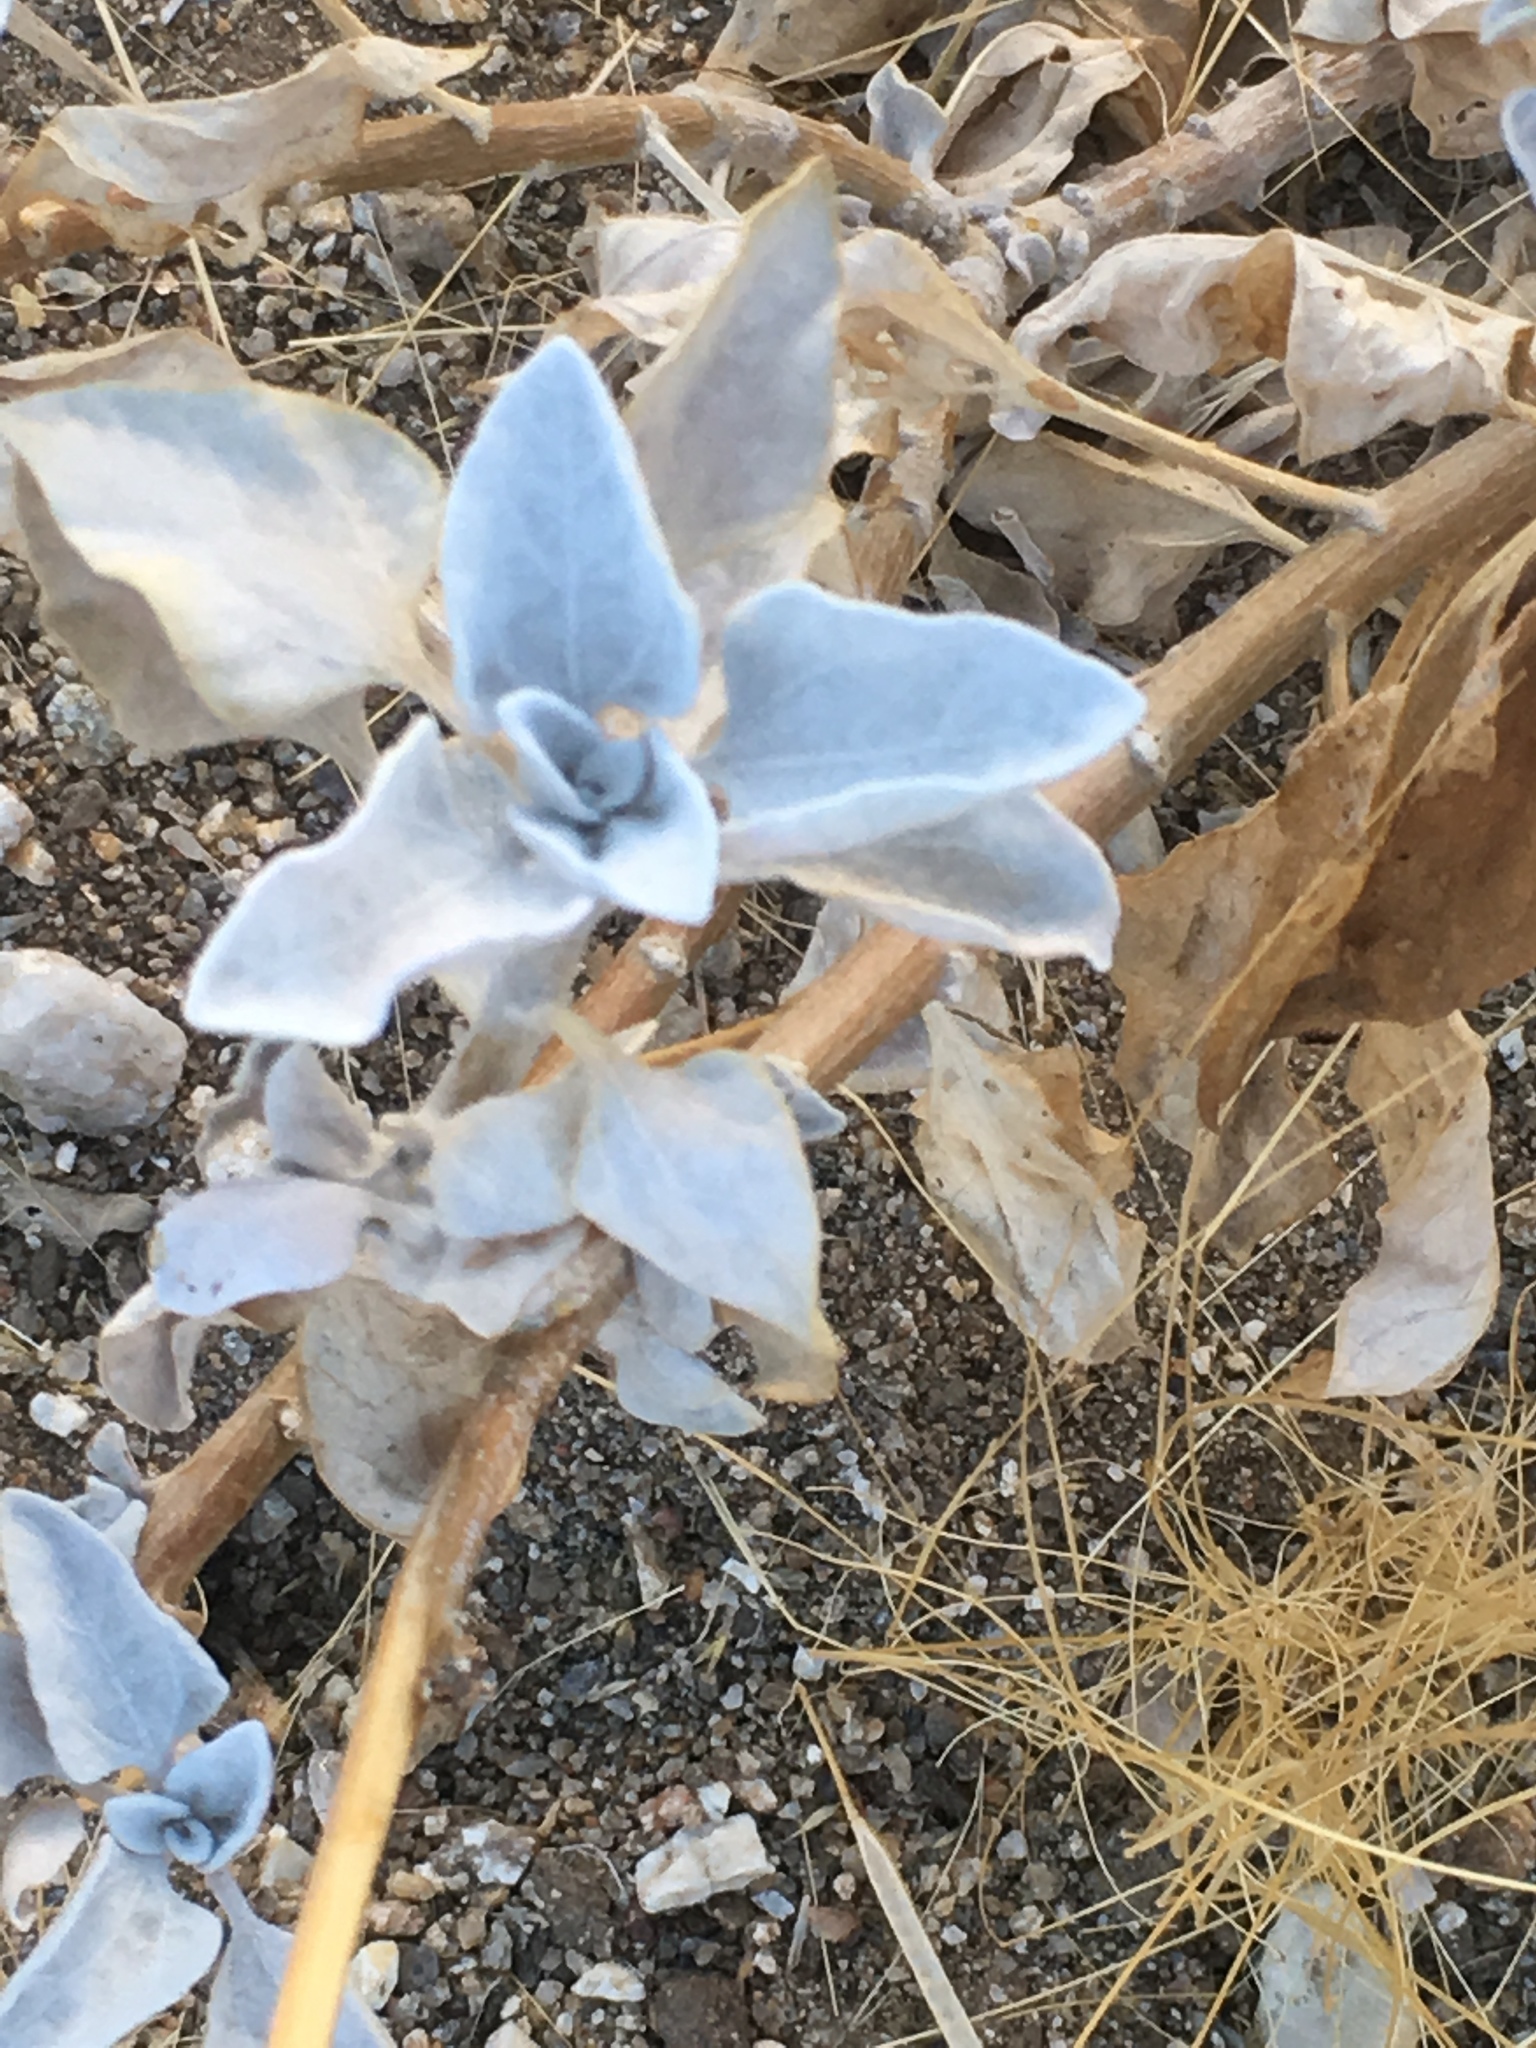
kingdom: Plantae
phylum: Tracheophyta
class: Magnoliopsida
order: Asterales
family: Asteraceae
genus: Encelia
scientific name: Encelia farinosa
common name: Brittlebush
